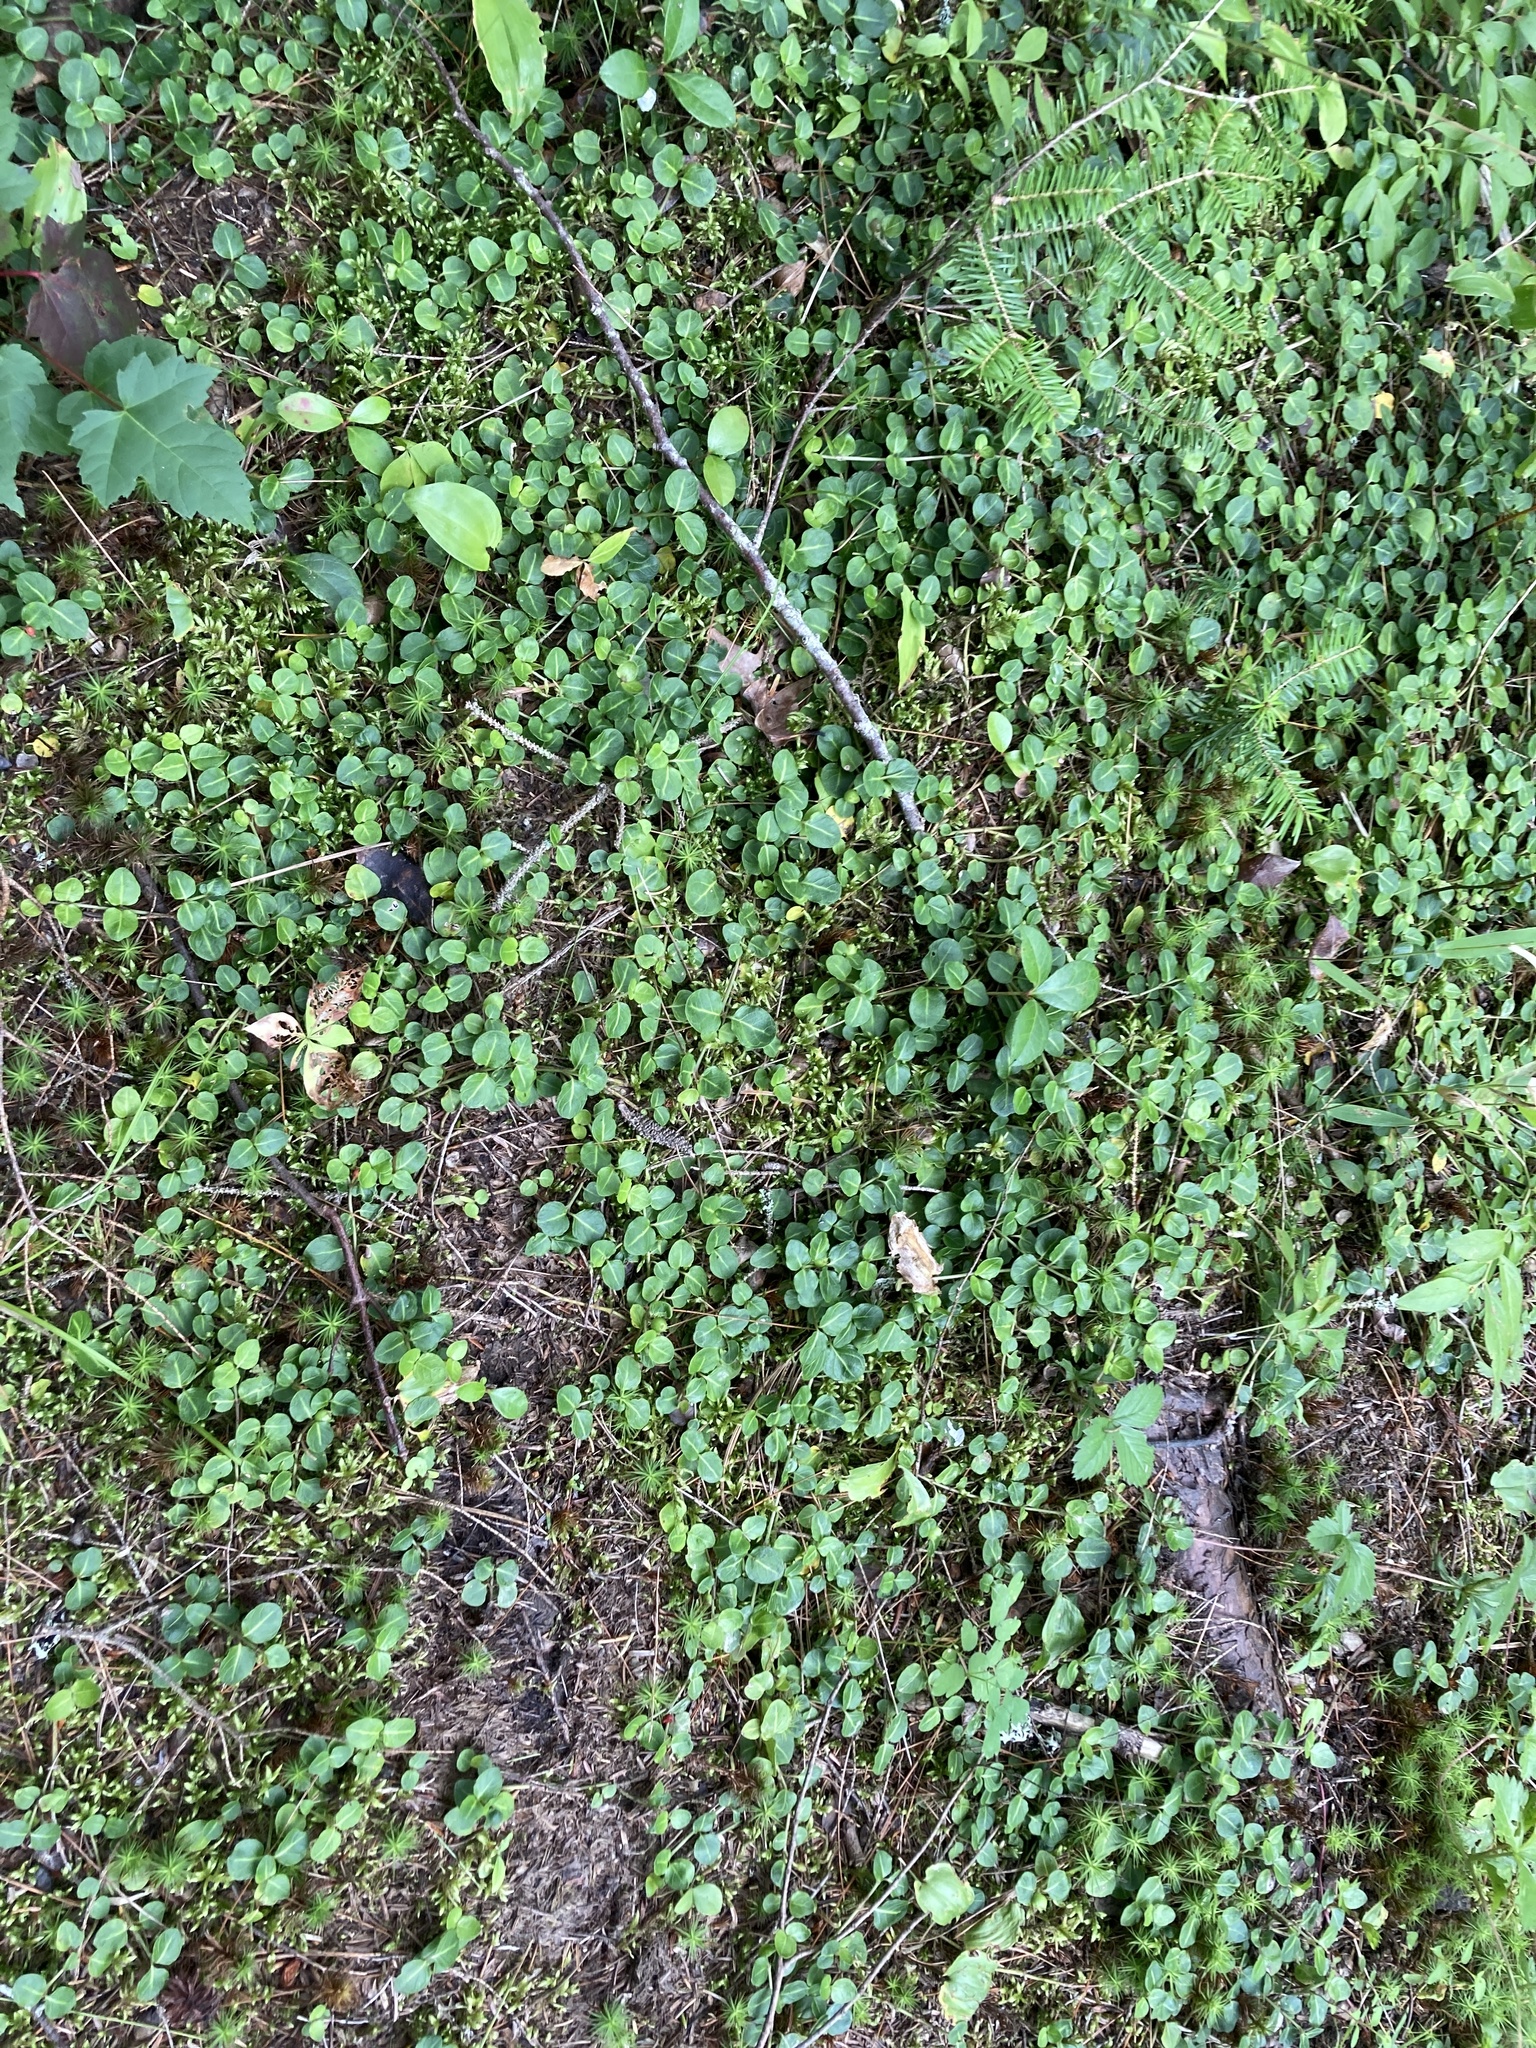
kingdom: Plantae
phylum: Tracheophyta
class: Magnoliopsida
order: Gentianales
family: Rubiaceae
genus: Mitchella
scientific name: Mitchella repens
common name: Partridge-berry
